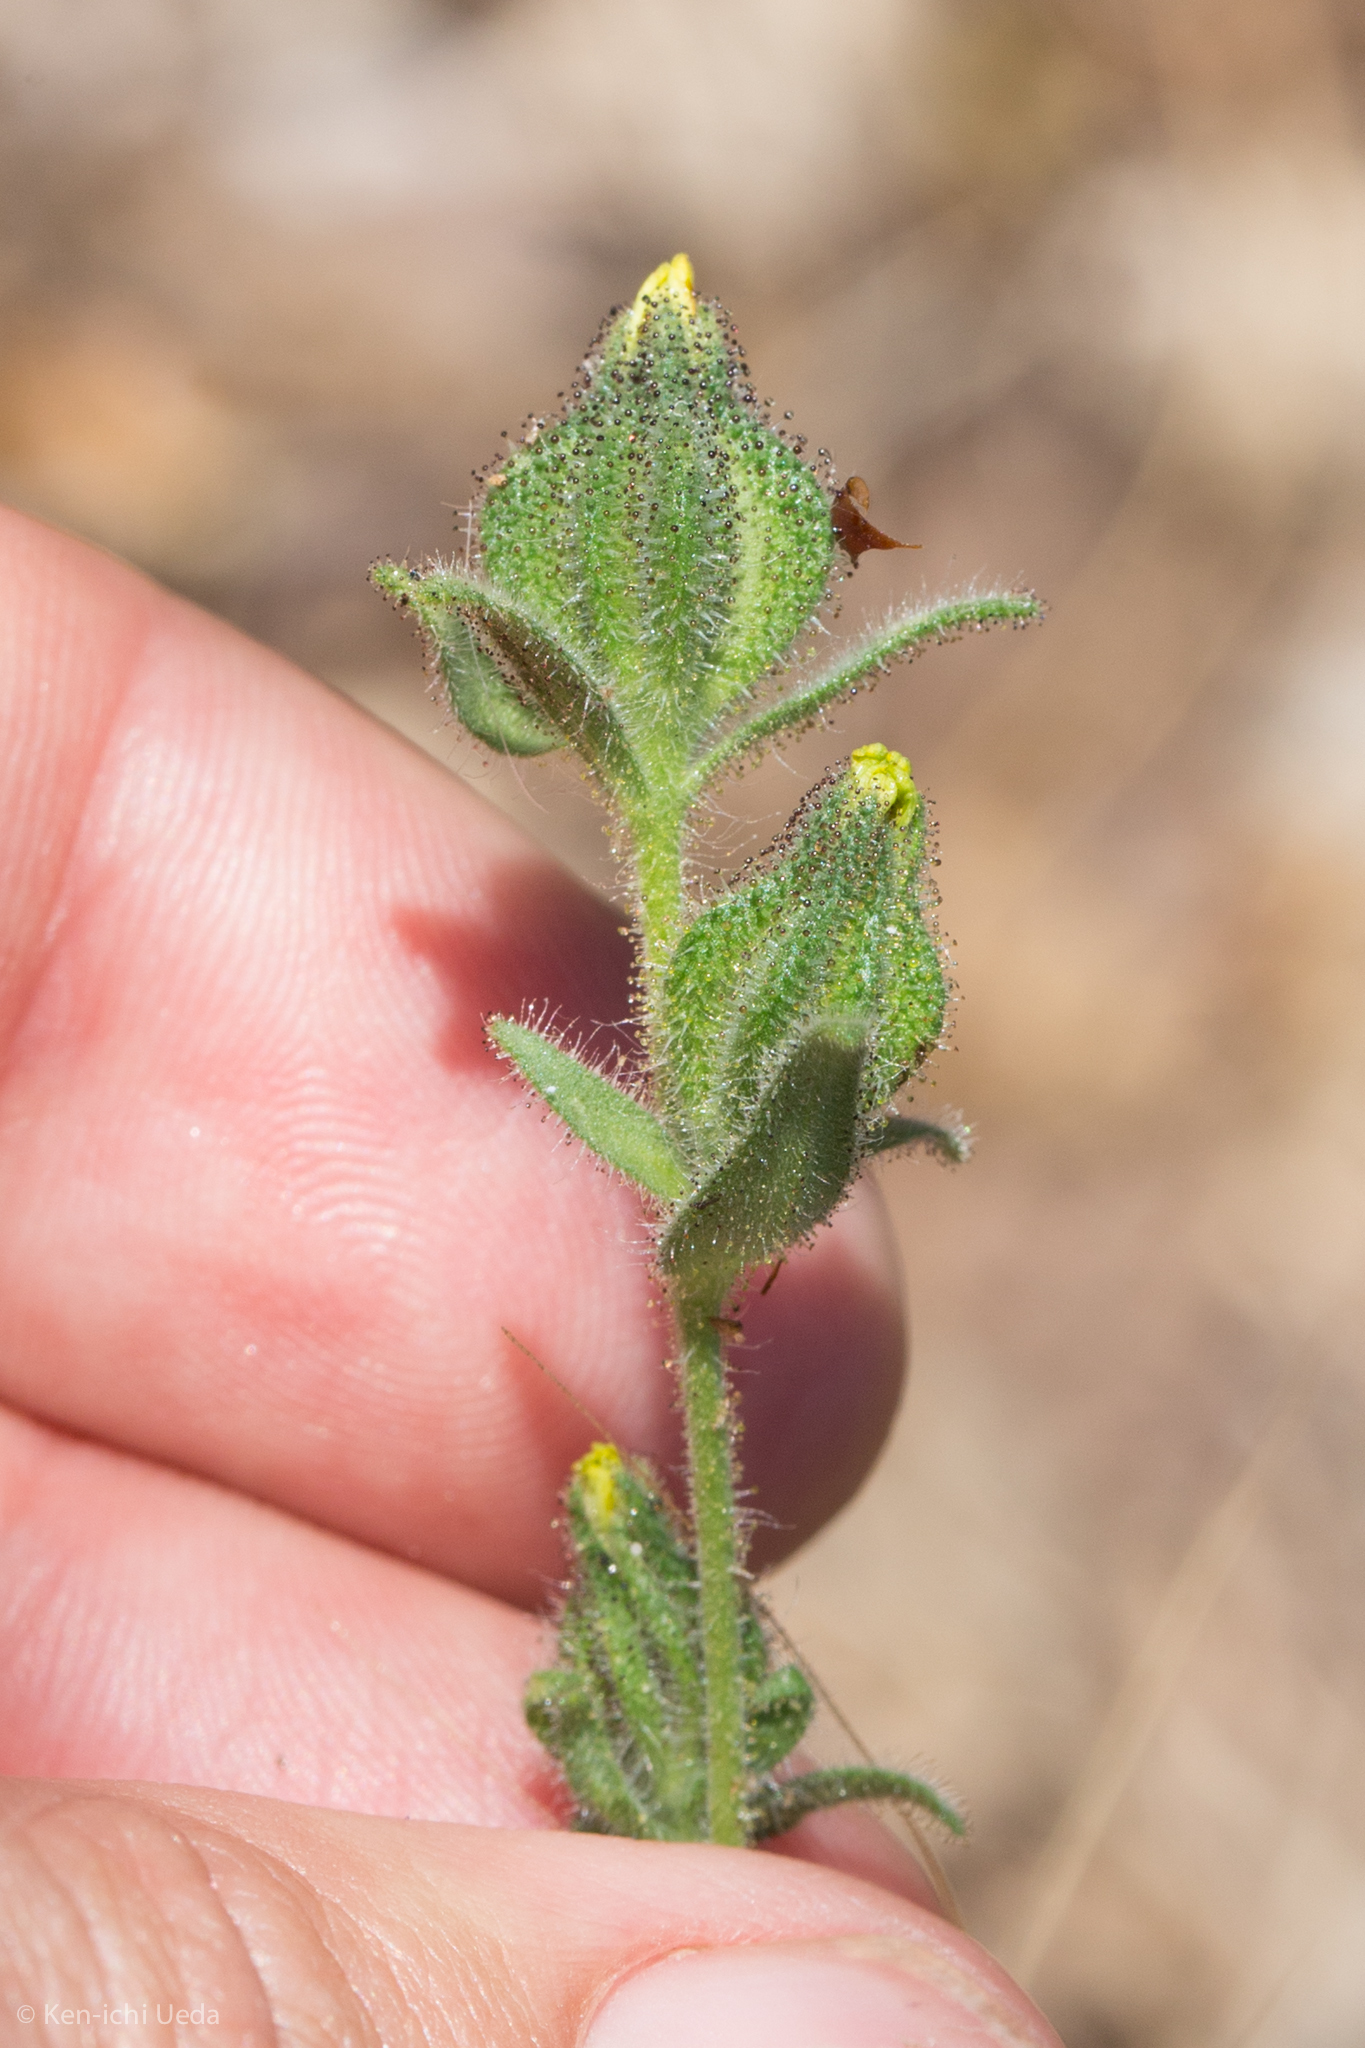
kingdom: Plantae
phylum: Tracheophyta
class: Magnoliopsida
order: Asterales
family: Asteraceae
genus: Madia
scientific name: Madia sativa
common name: Coast tarweed
